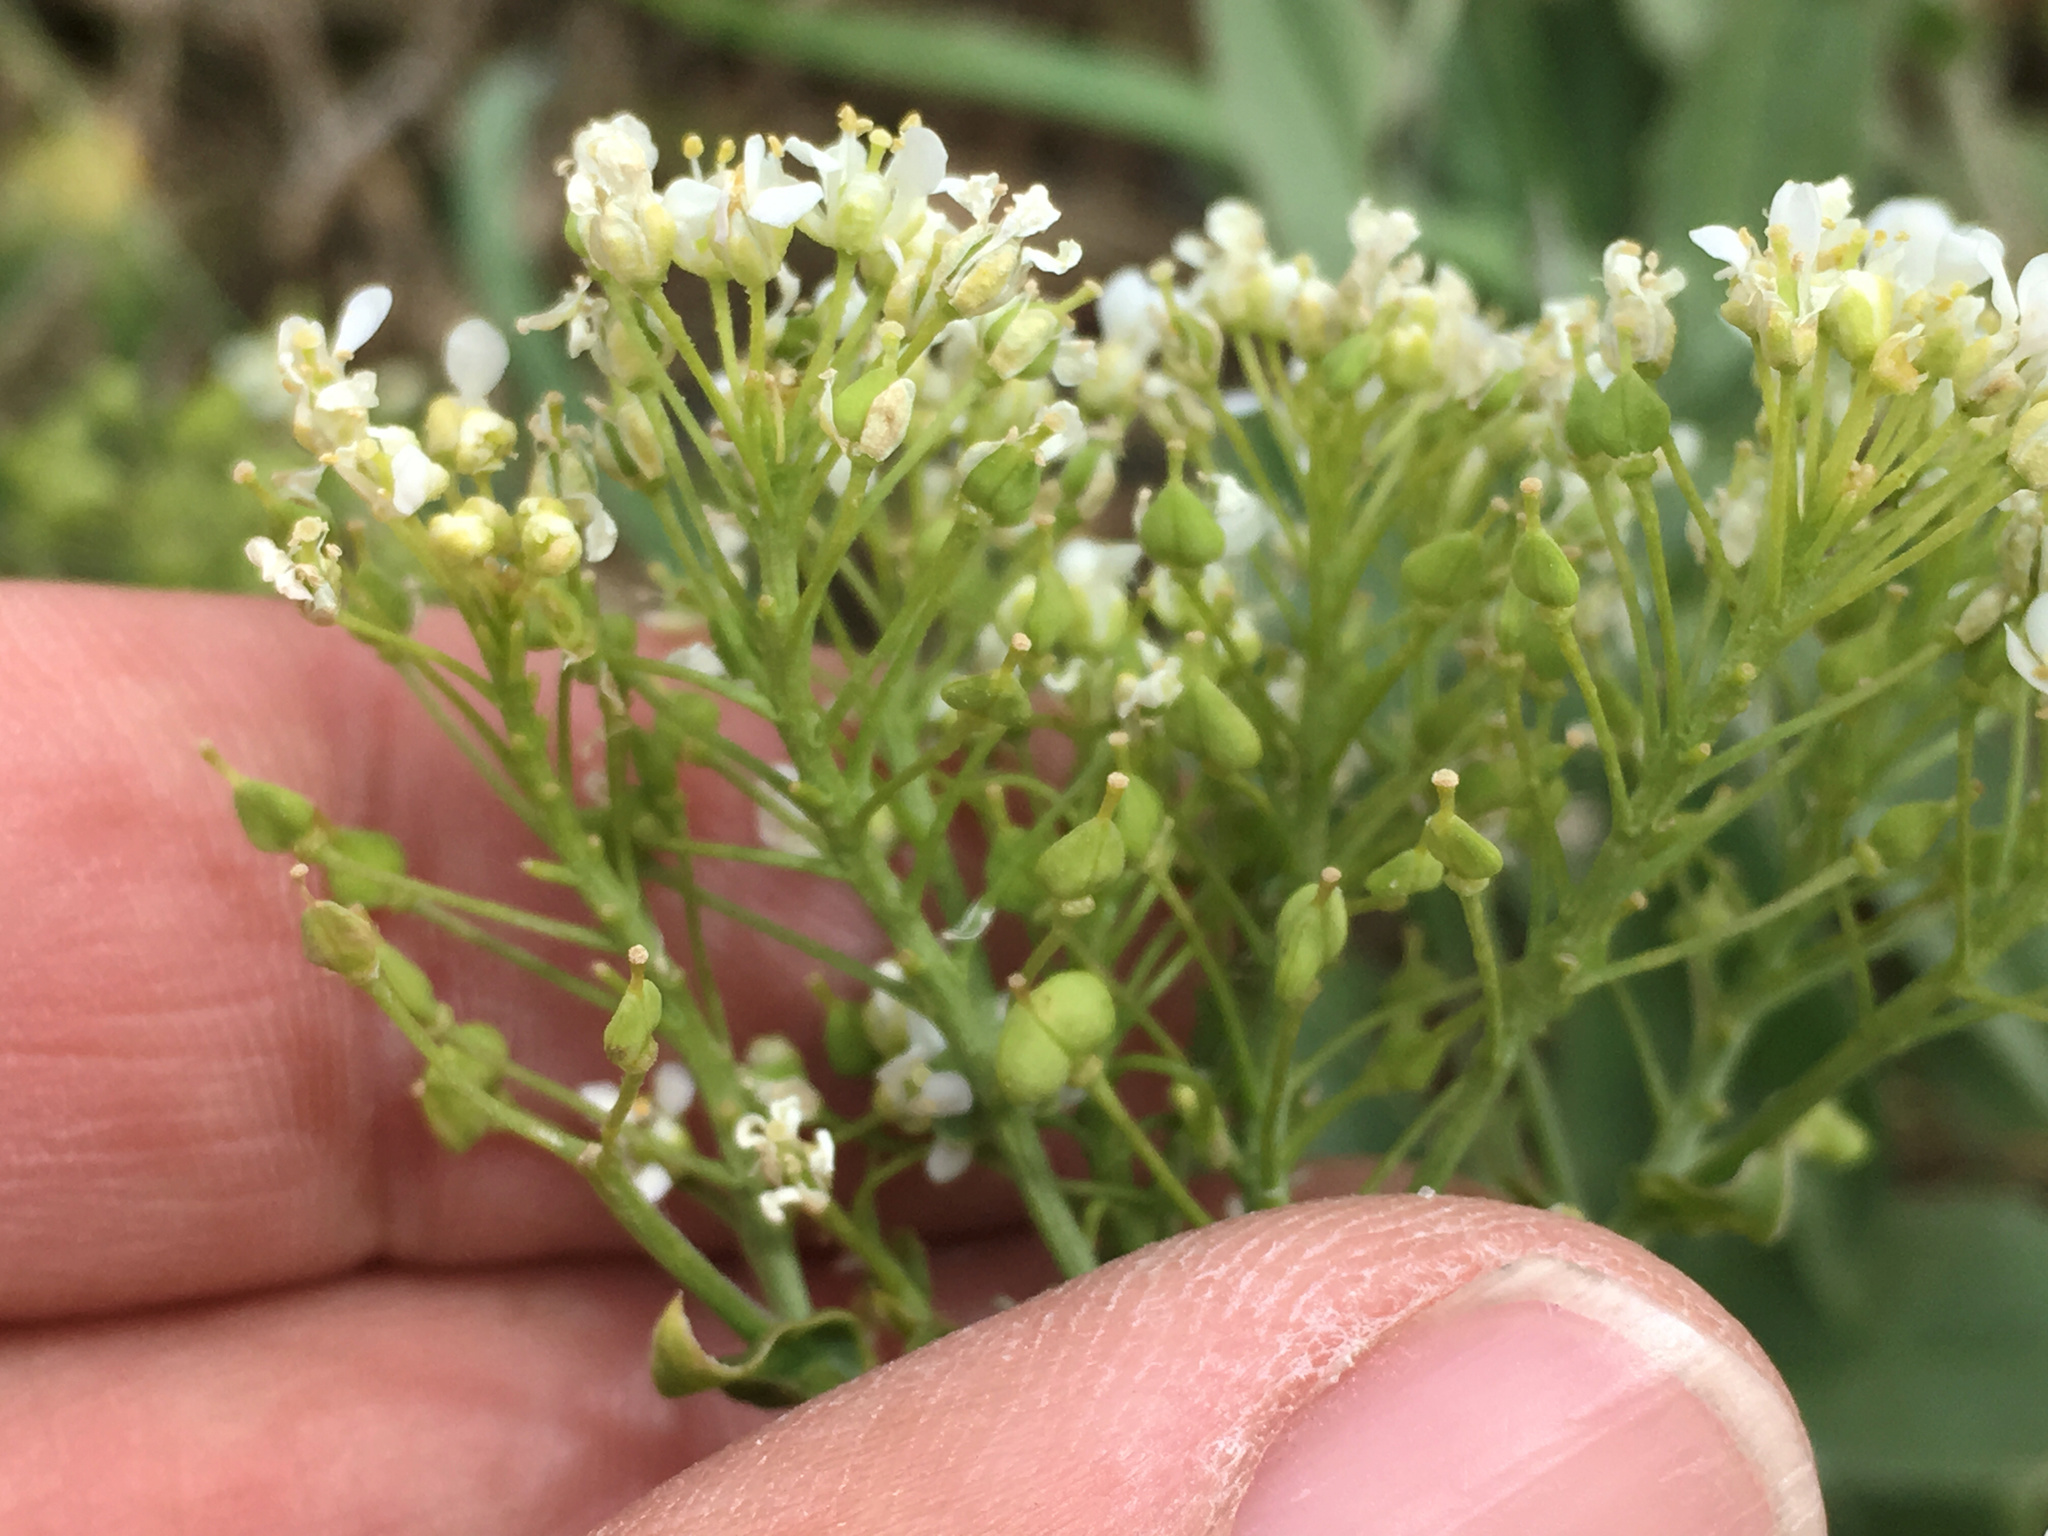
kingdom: Plantae
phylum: Tracheophyta
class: Magnoliopsida
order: Brassicales
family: Brassicaceae
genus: Lepidium
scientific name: Lepidium draba
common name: Hoary cress
